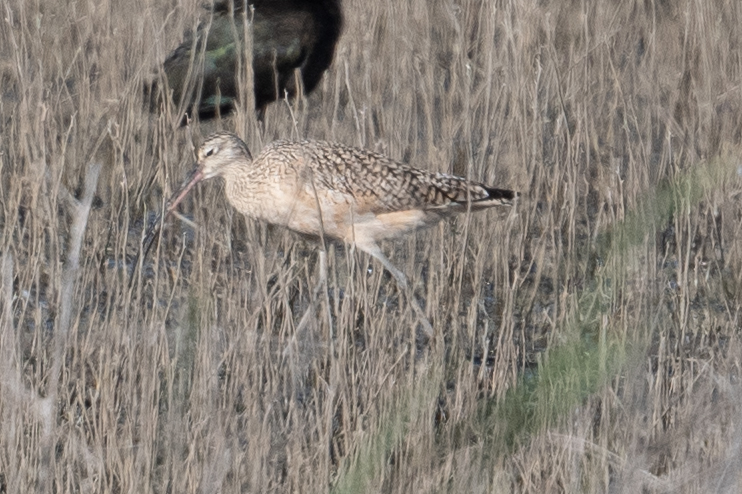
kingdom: Animalia
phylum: Chordata
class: Aves
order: Charadriiformes
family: Scolopacidae
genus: Numenius
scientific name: Numenius americanus
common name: Long-billed curlew
